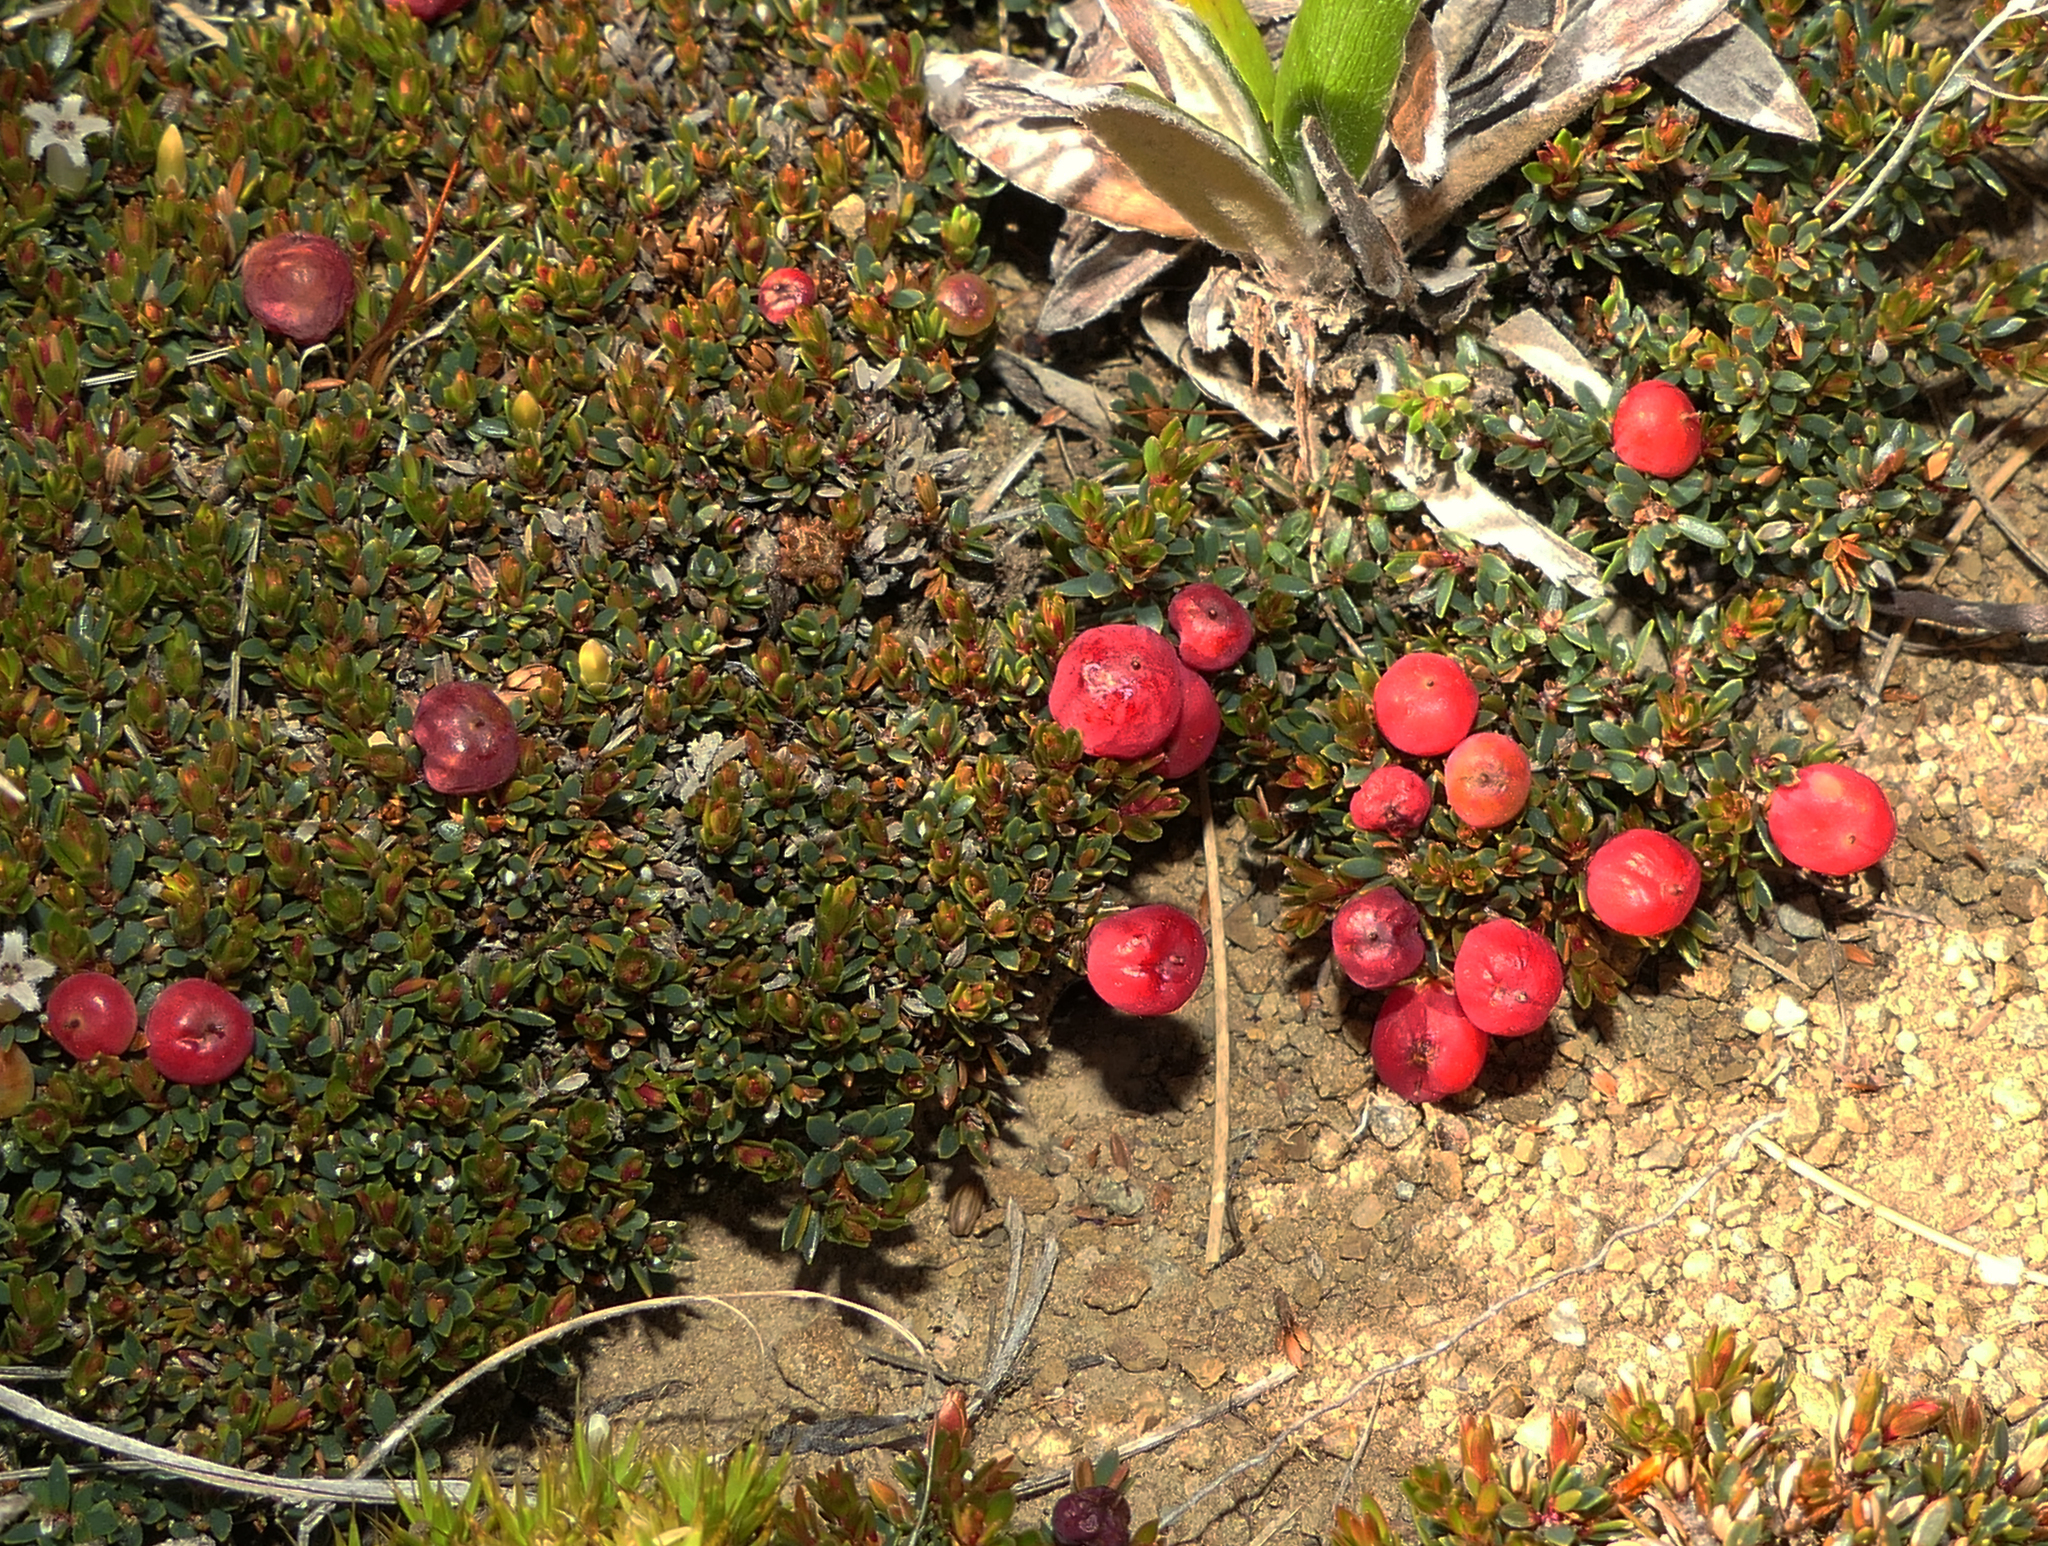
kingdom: Plantae
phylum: Tracheophyta
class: Magnoliopsida
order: Ericales
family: Ericaceae
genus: Pentachondra
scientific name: Pentachondra pumila
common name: Carpet-heath
